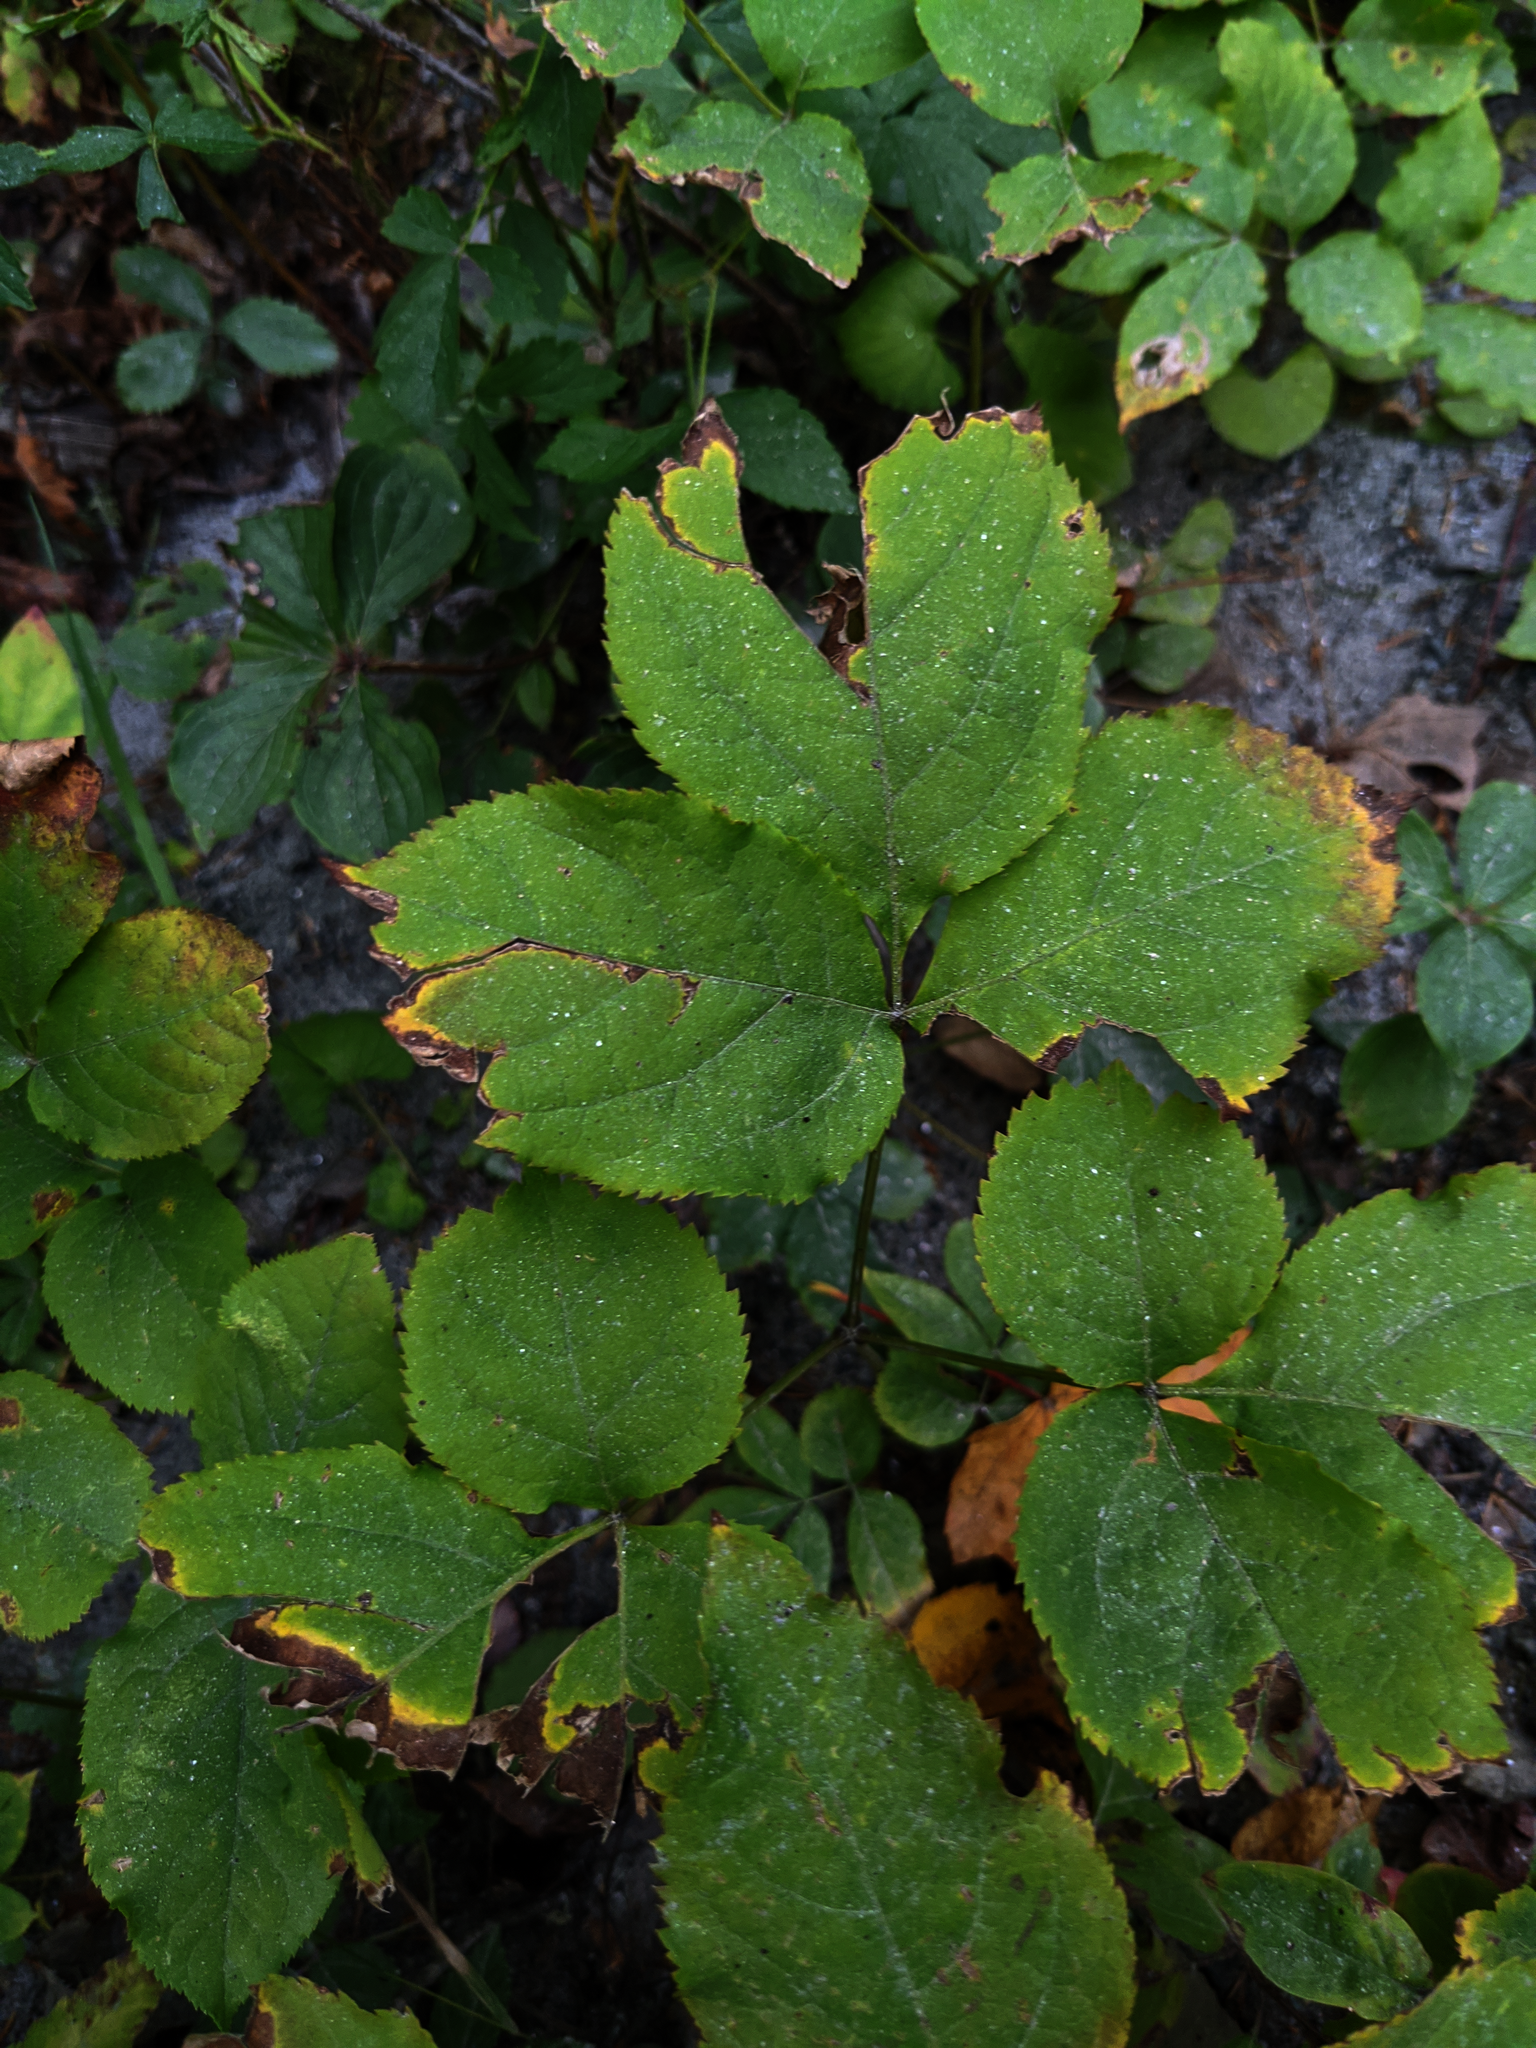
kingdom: Plantae
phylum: Tracheophyta
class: Magnoliopsida
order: Apiales
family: Araliaceae
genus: Aralia
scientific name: Aralia nudicaulis
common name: Wild sarsaparilla
